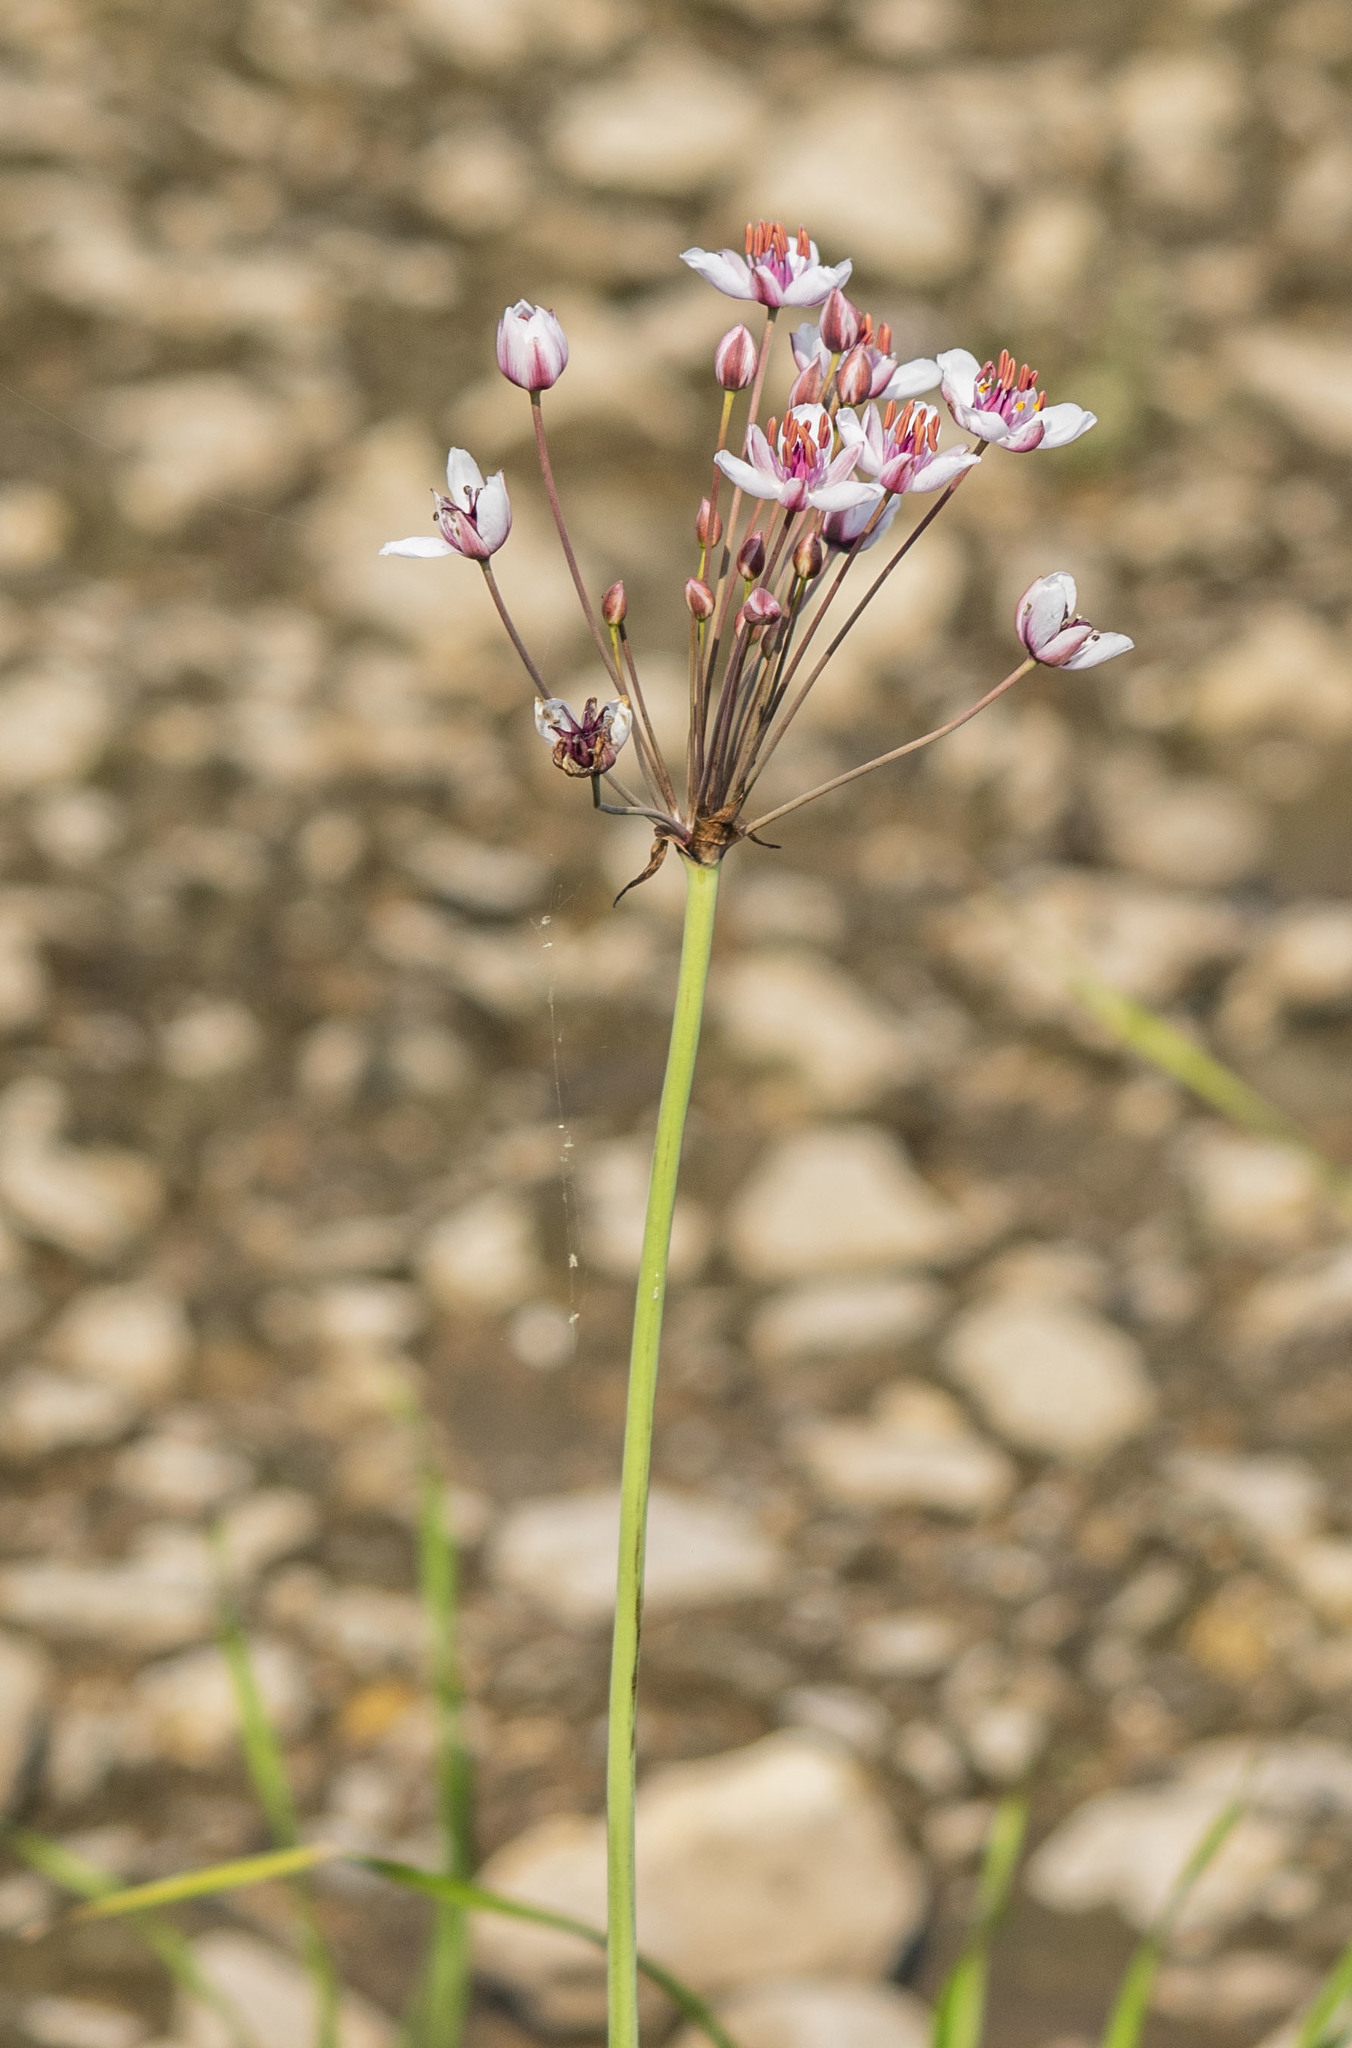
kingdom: Plantae
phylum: Tracheophyta
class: Liliopsida
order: Alismatales
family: Butomaceae
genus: Butomus
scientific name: Butomus umbellatus
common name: Flowering-rush
